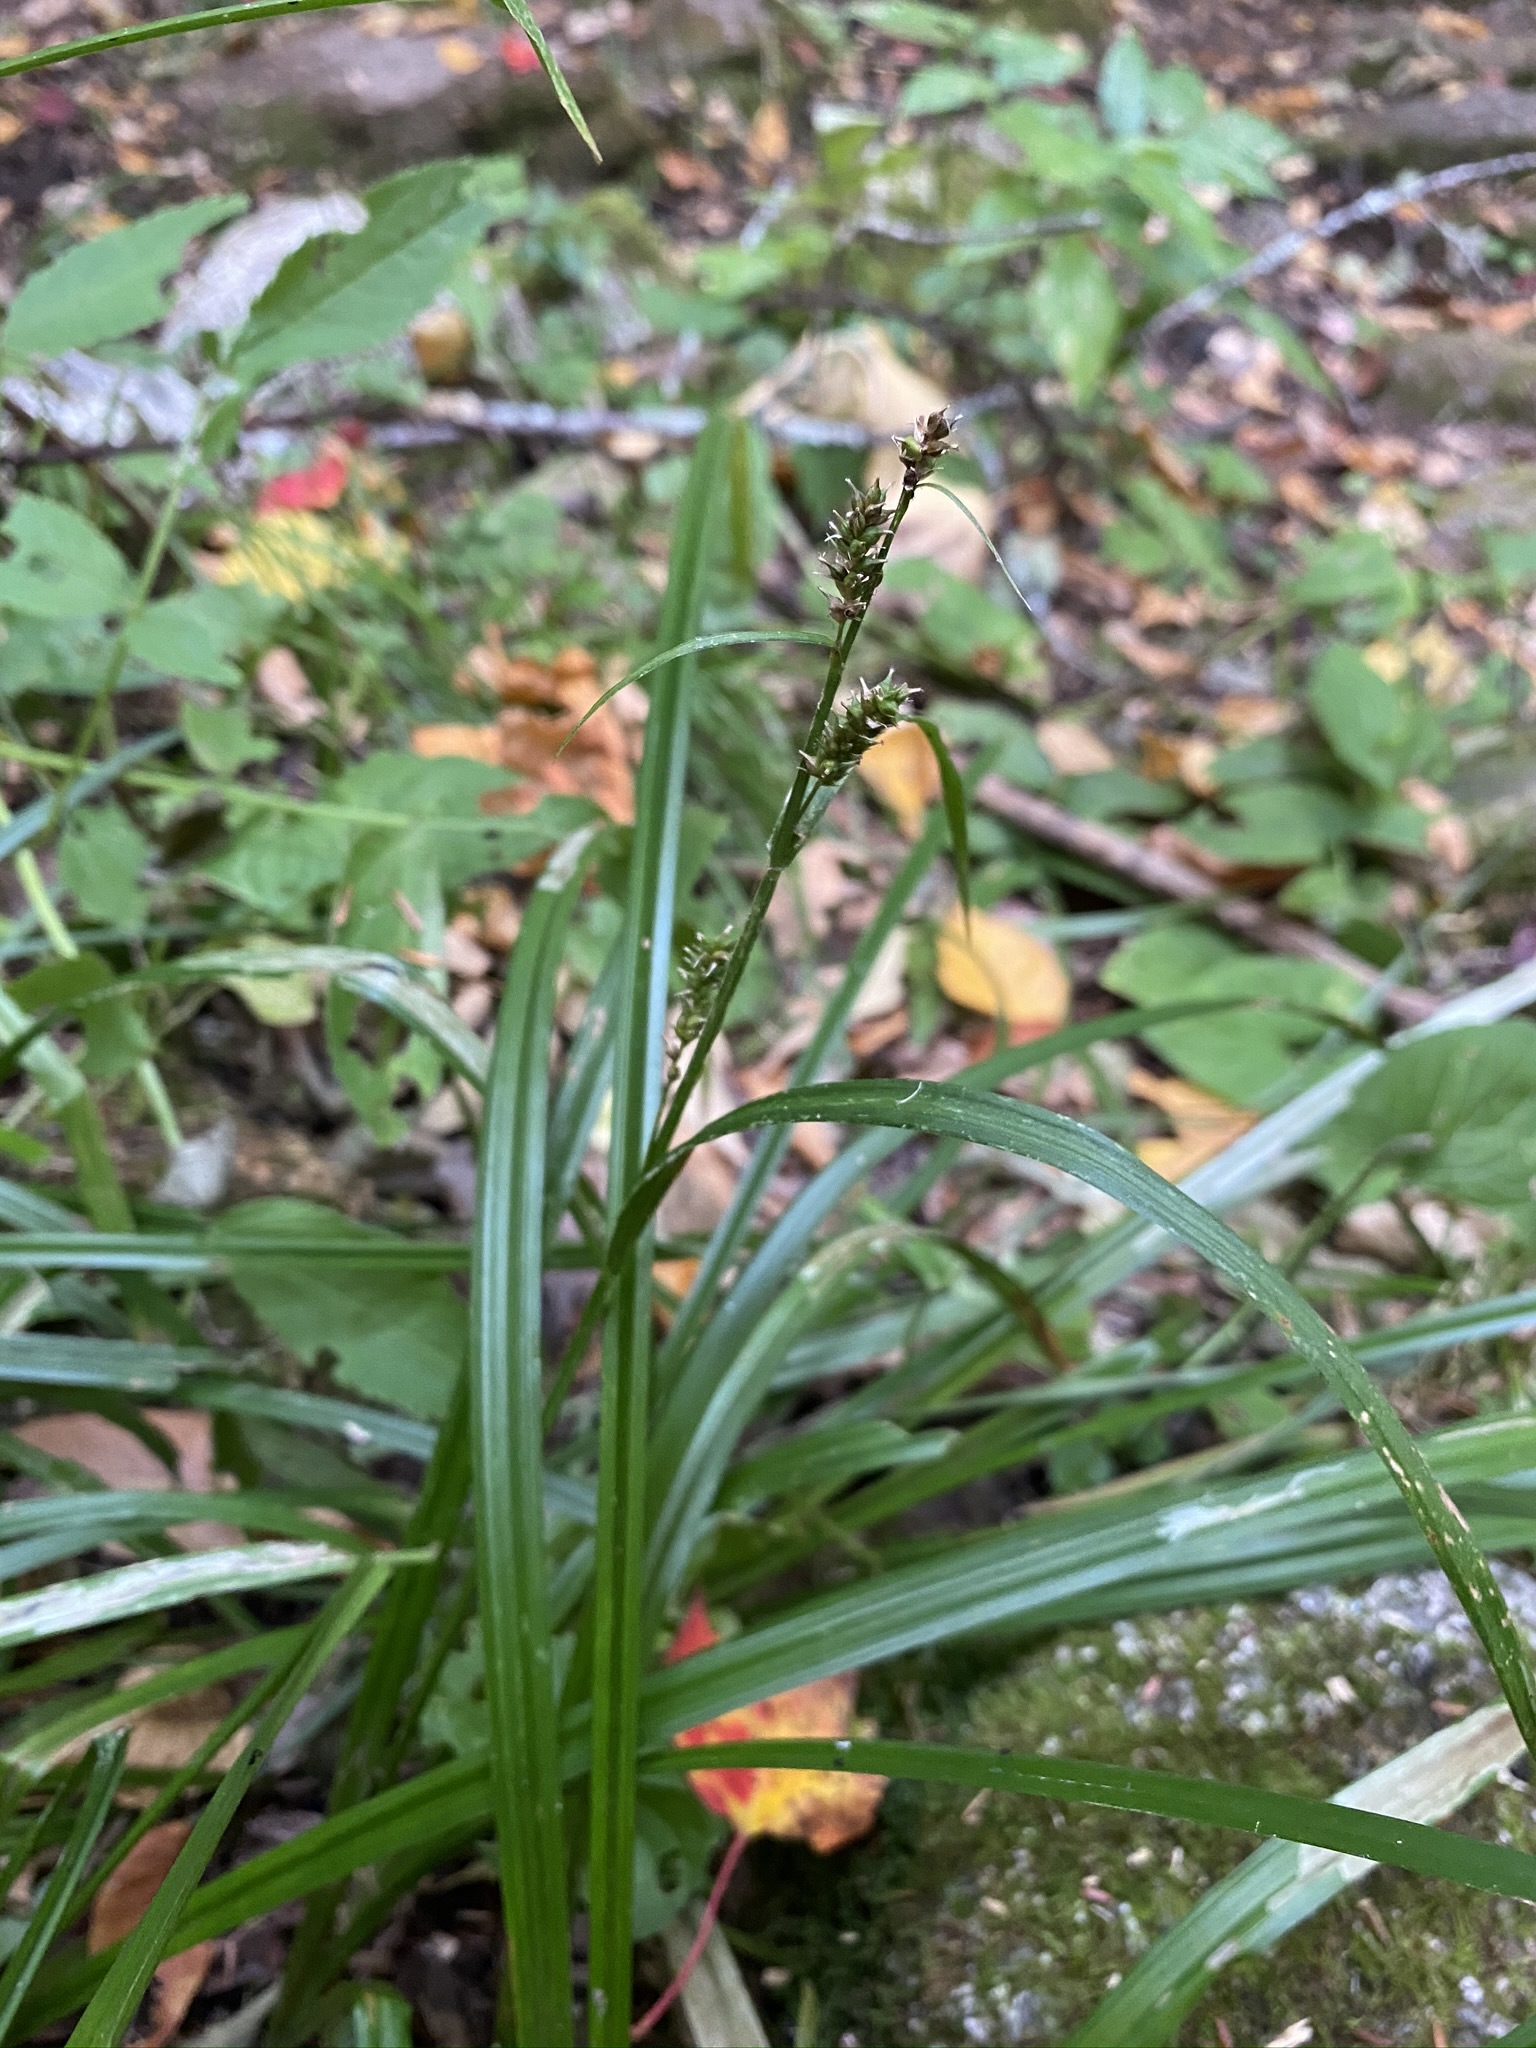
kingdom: Plantae
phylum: Tracheophyta
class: Liliopsida
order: Poales
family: Cyperaceae
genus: Carex
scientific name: Carex scabrata
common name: Eastern rough sedge
